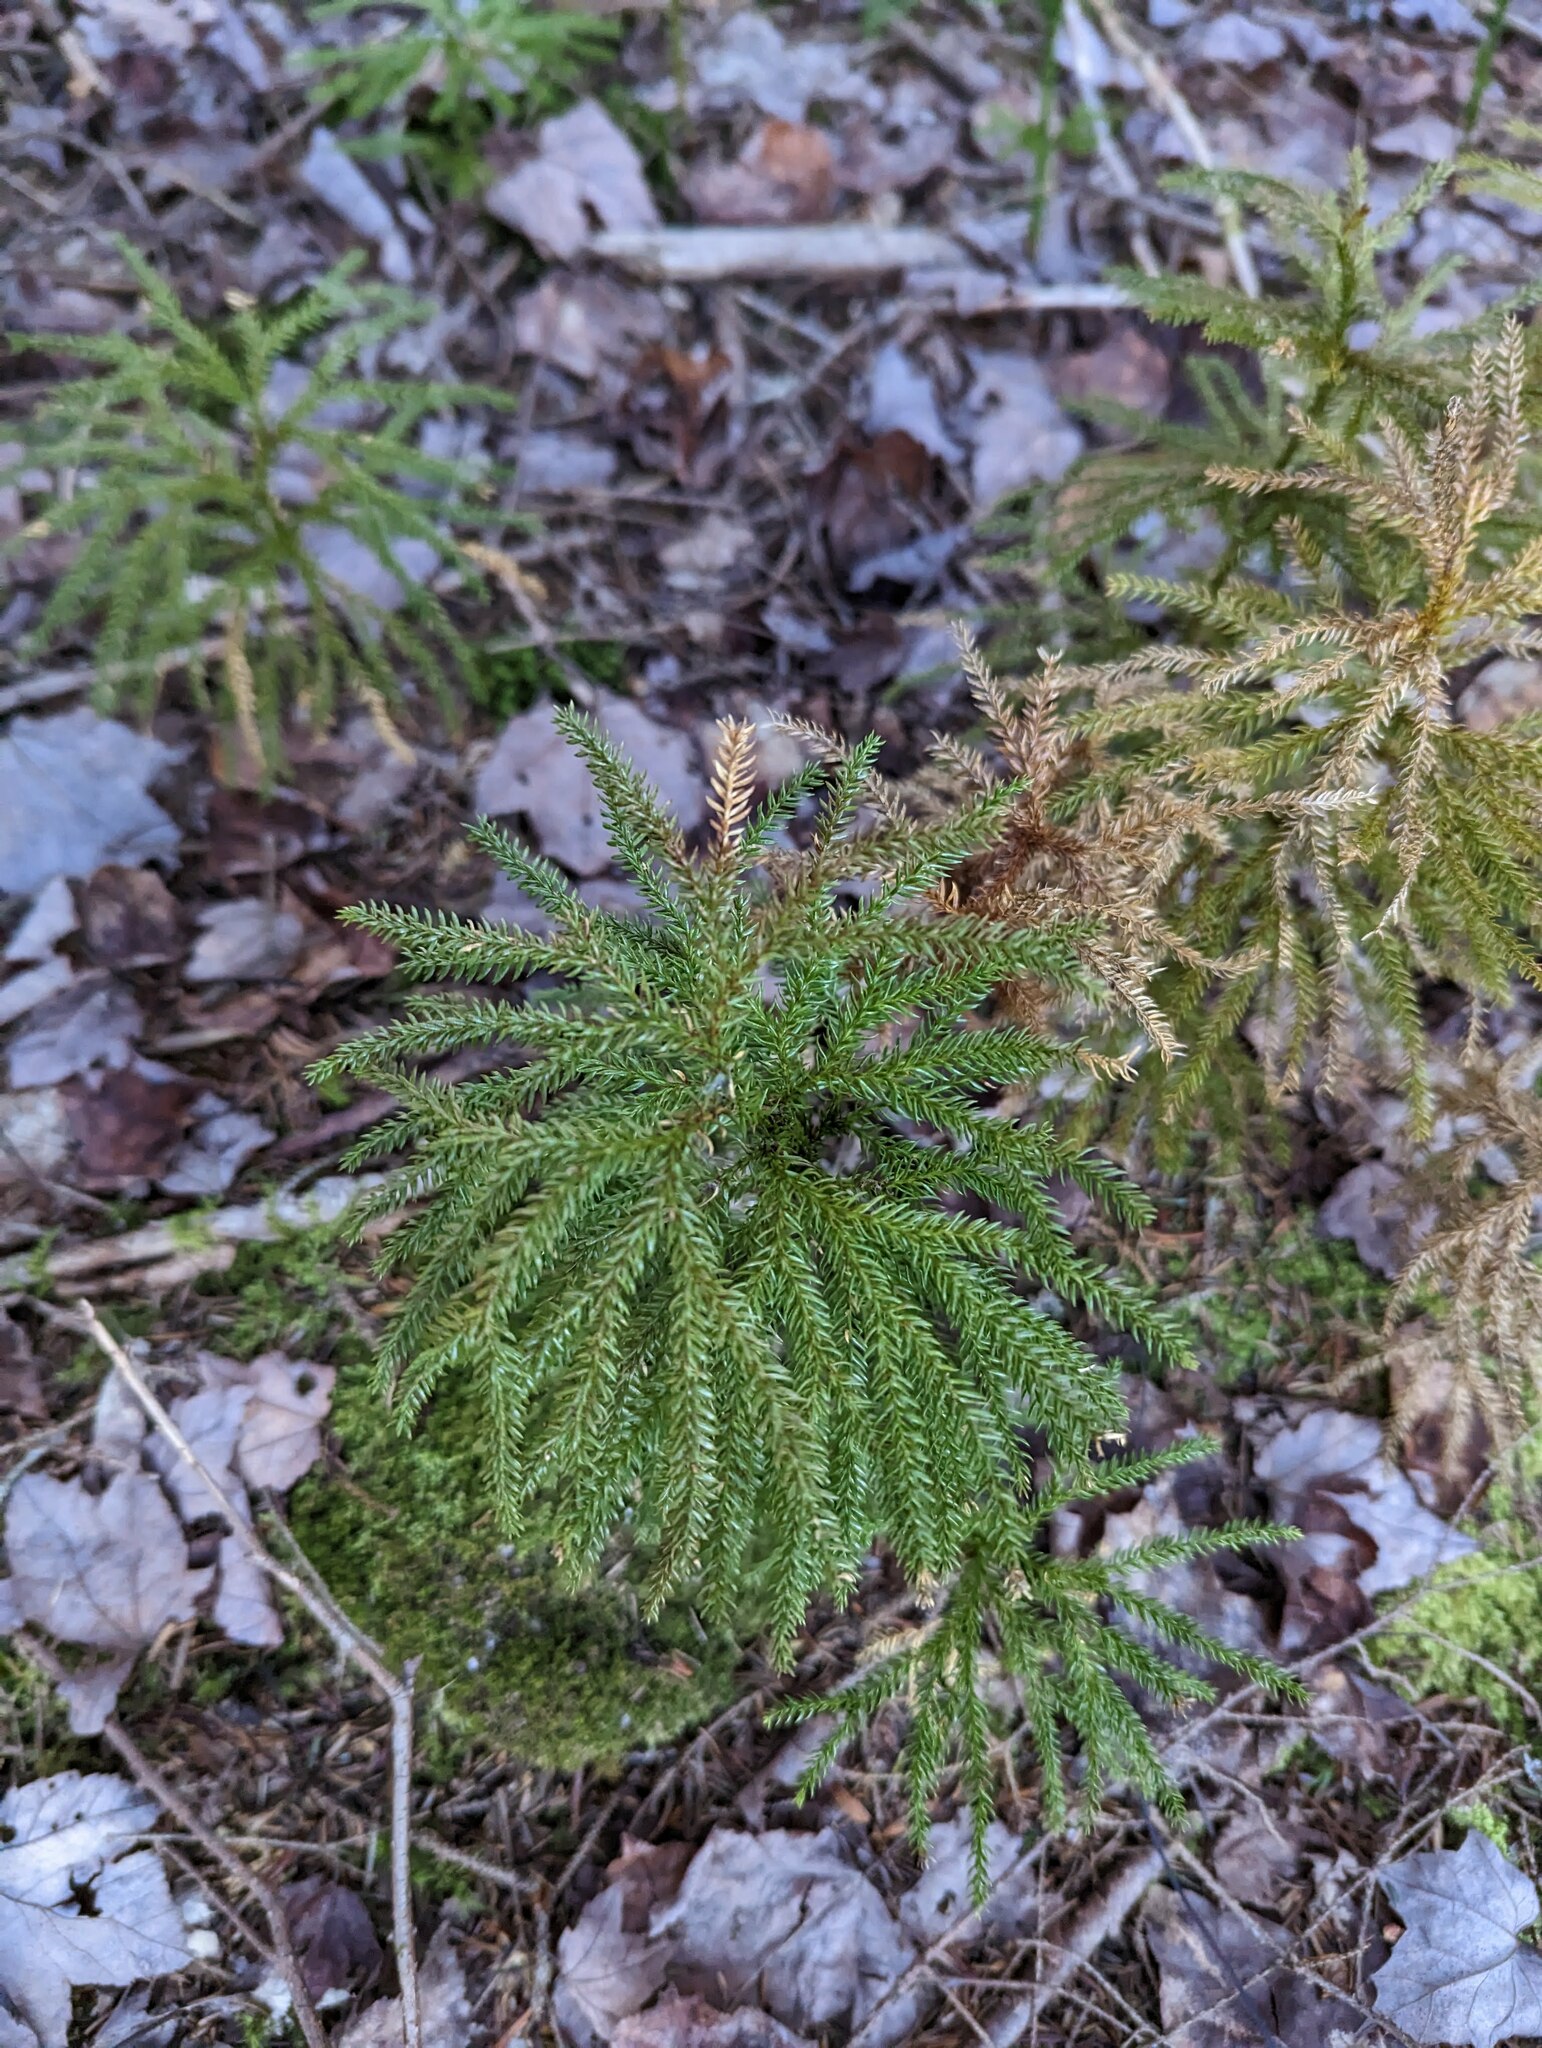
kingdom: Plantae
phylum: Tracheophyta
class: Lycopodiopsida
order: Lycopodiales
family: Lycopodiaceae
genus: Dendrolycopodium
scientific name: Dendrolycopodium dendroideum
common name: Northern tree-clubmoss
